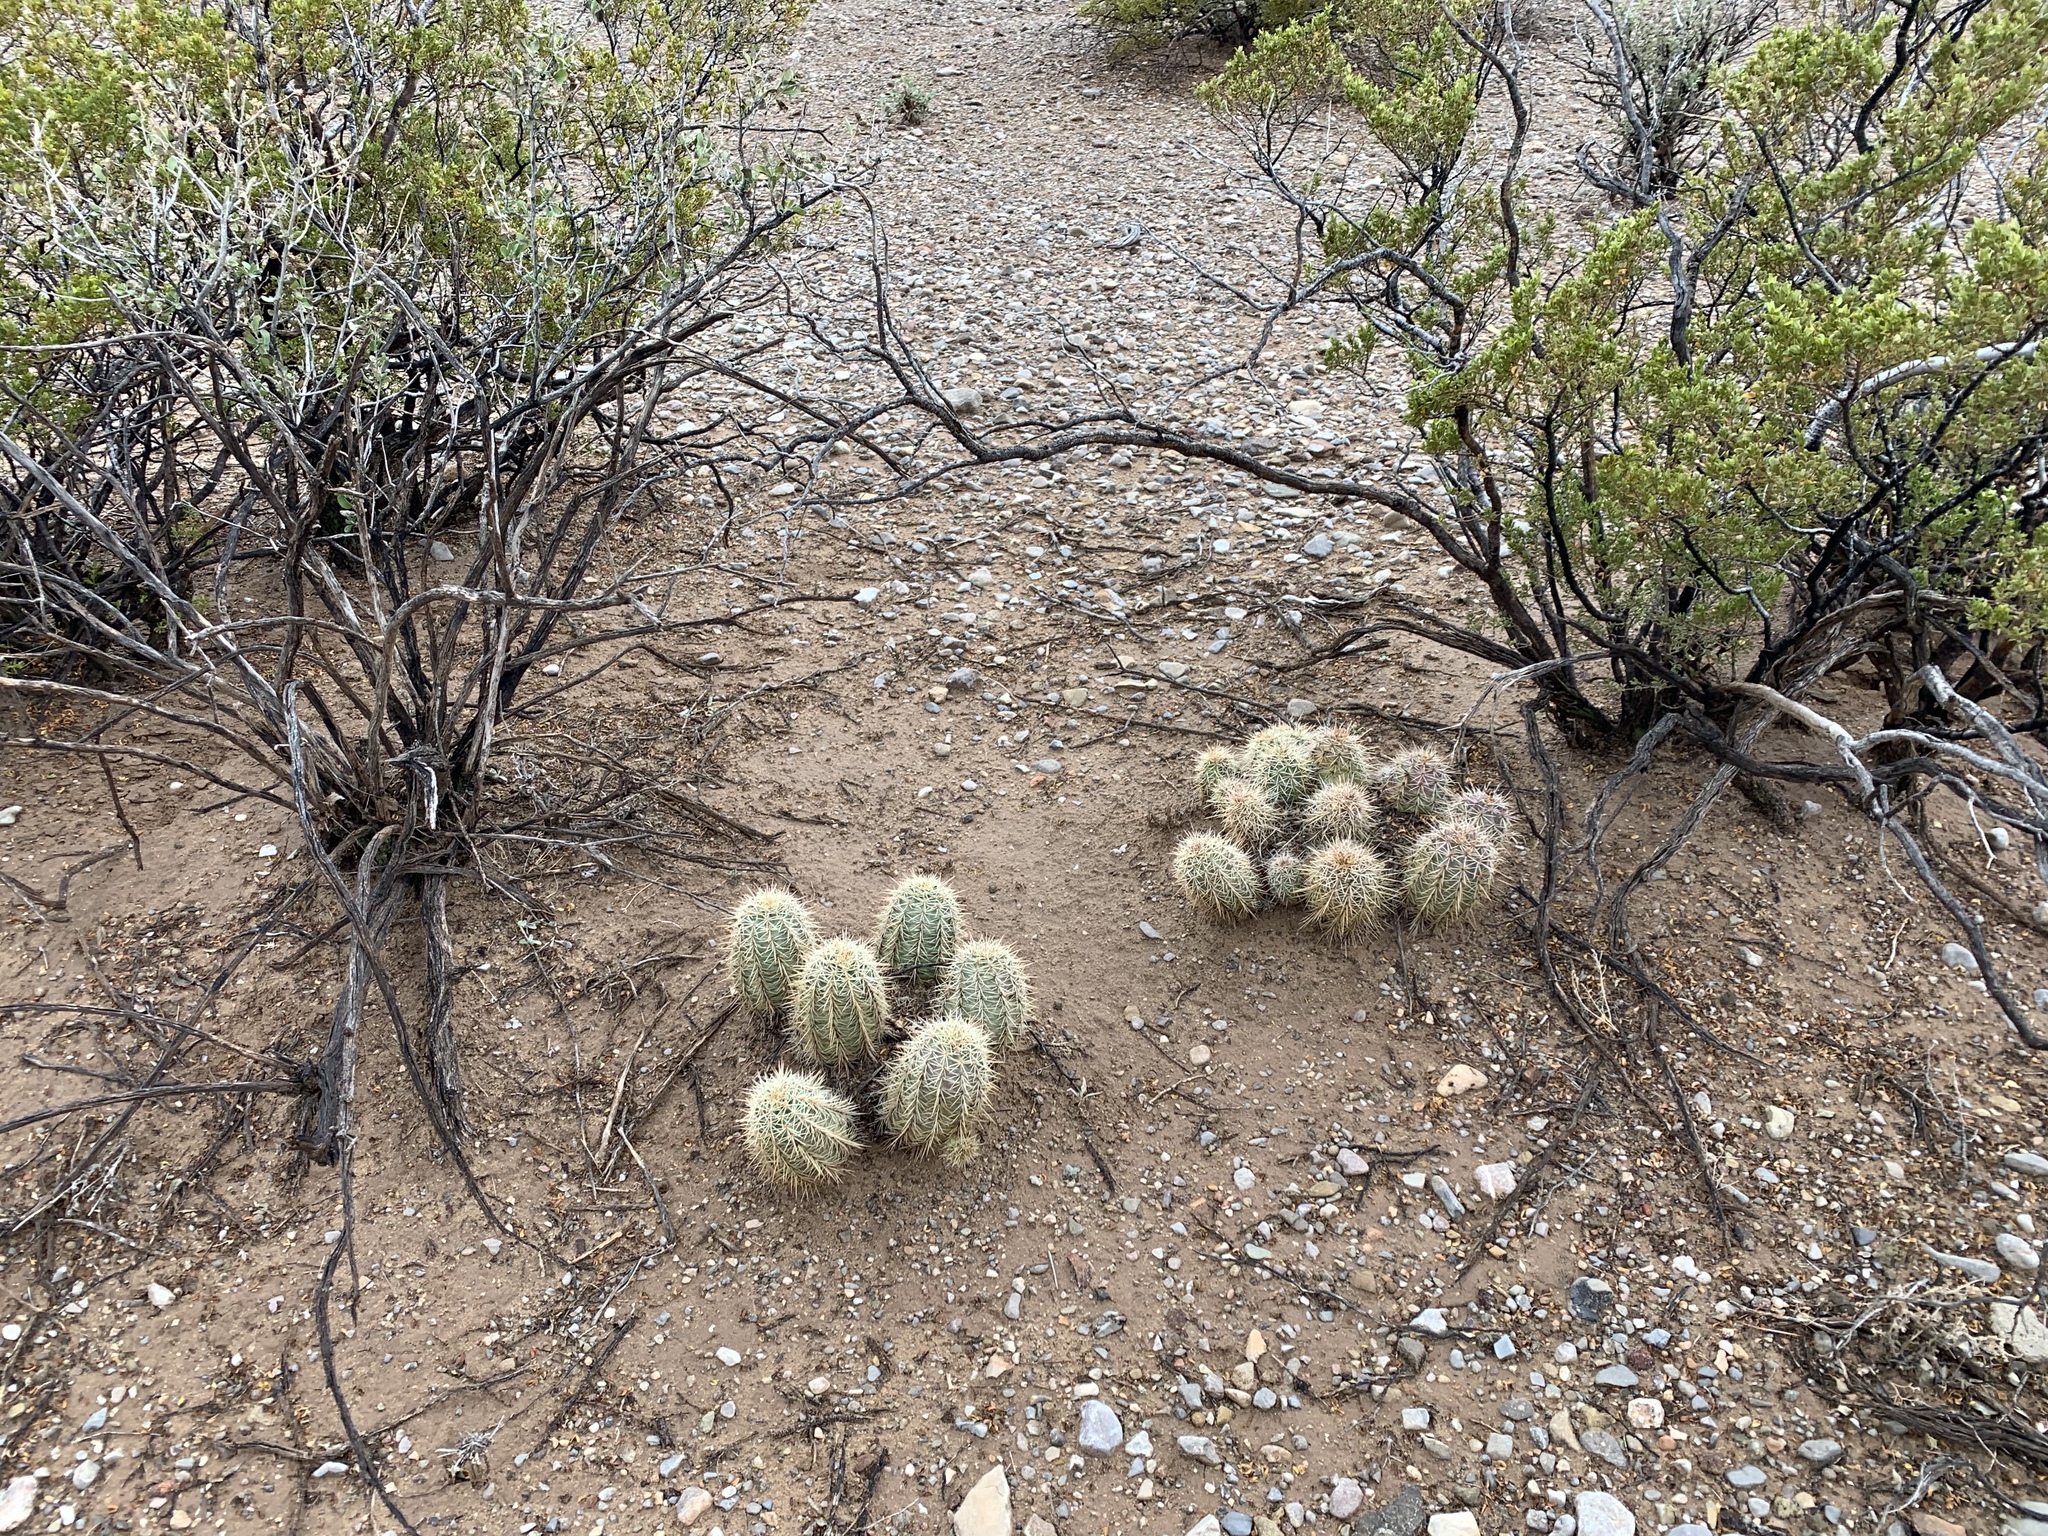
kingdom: Plantae
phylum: Tracheophyta
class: Magnoliopsida
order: Caryophyllales
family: Cactaceae
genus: Echinocereus
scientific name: Echinocereus coccineus
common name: Scarlet hedgehog cactus
